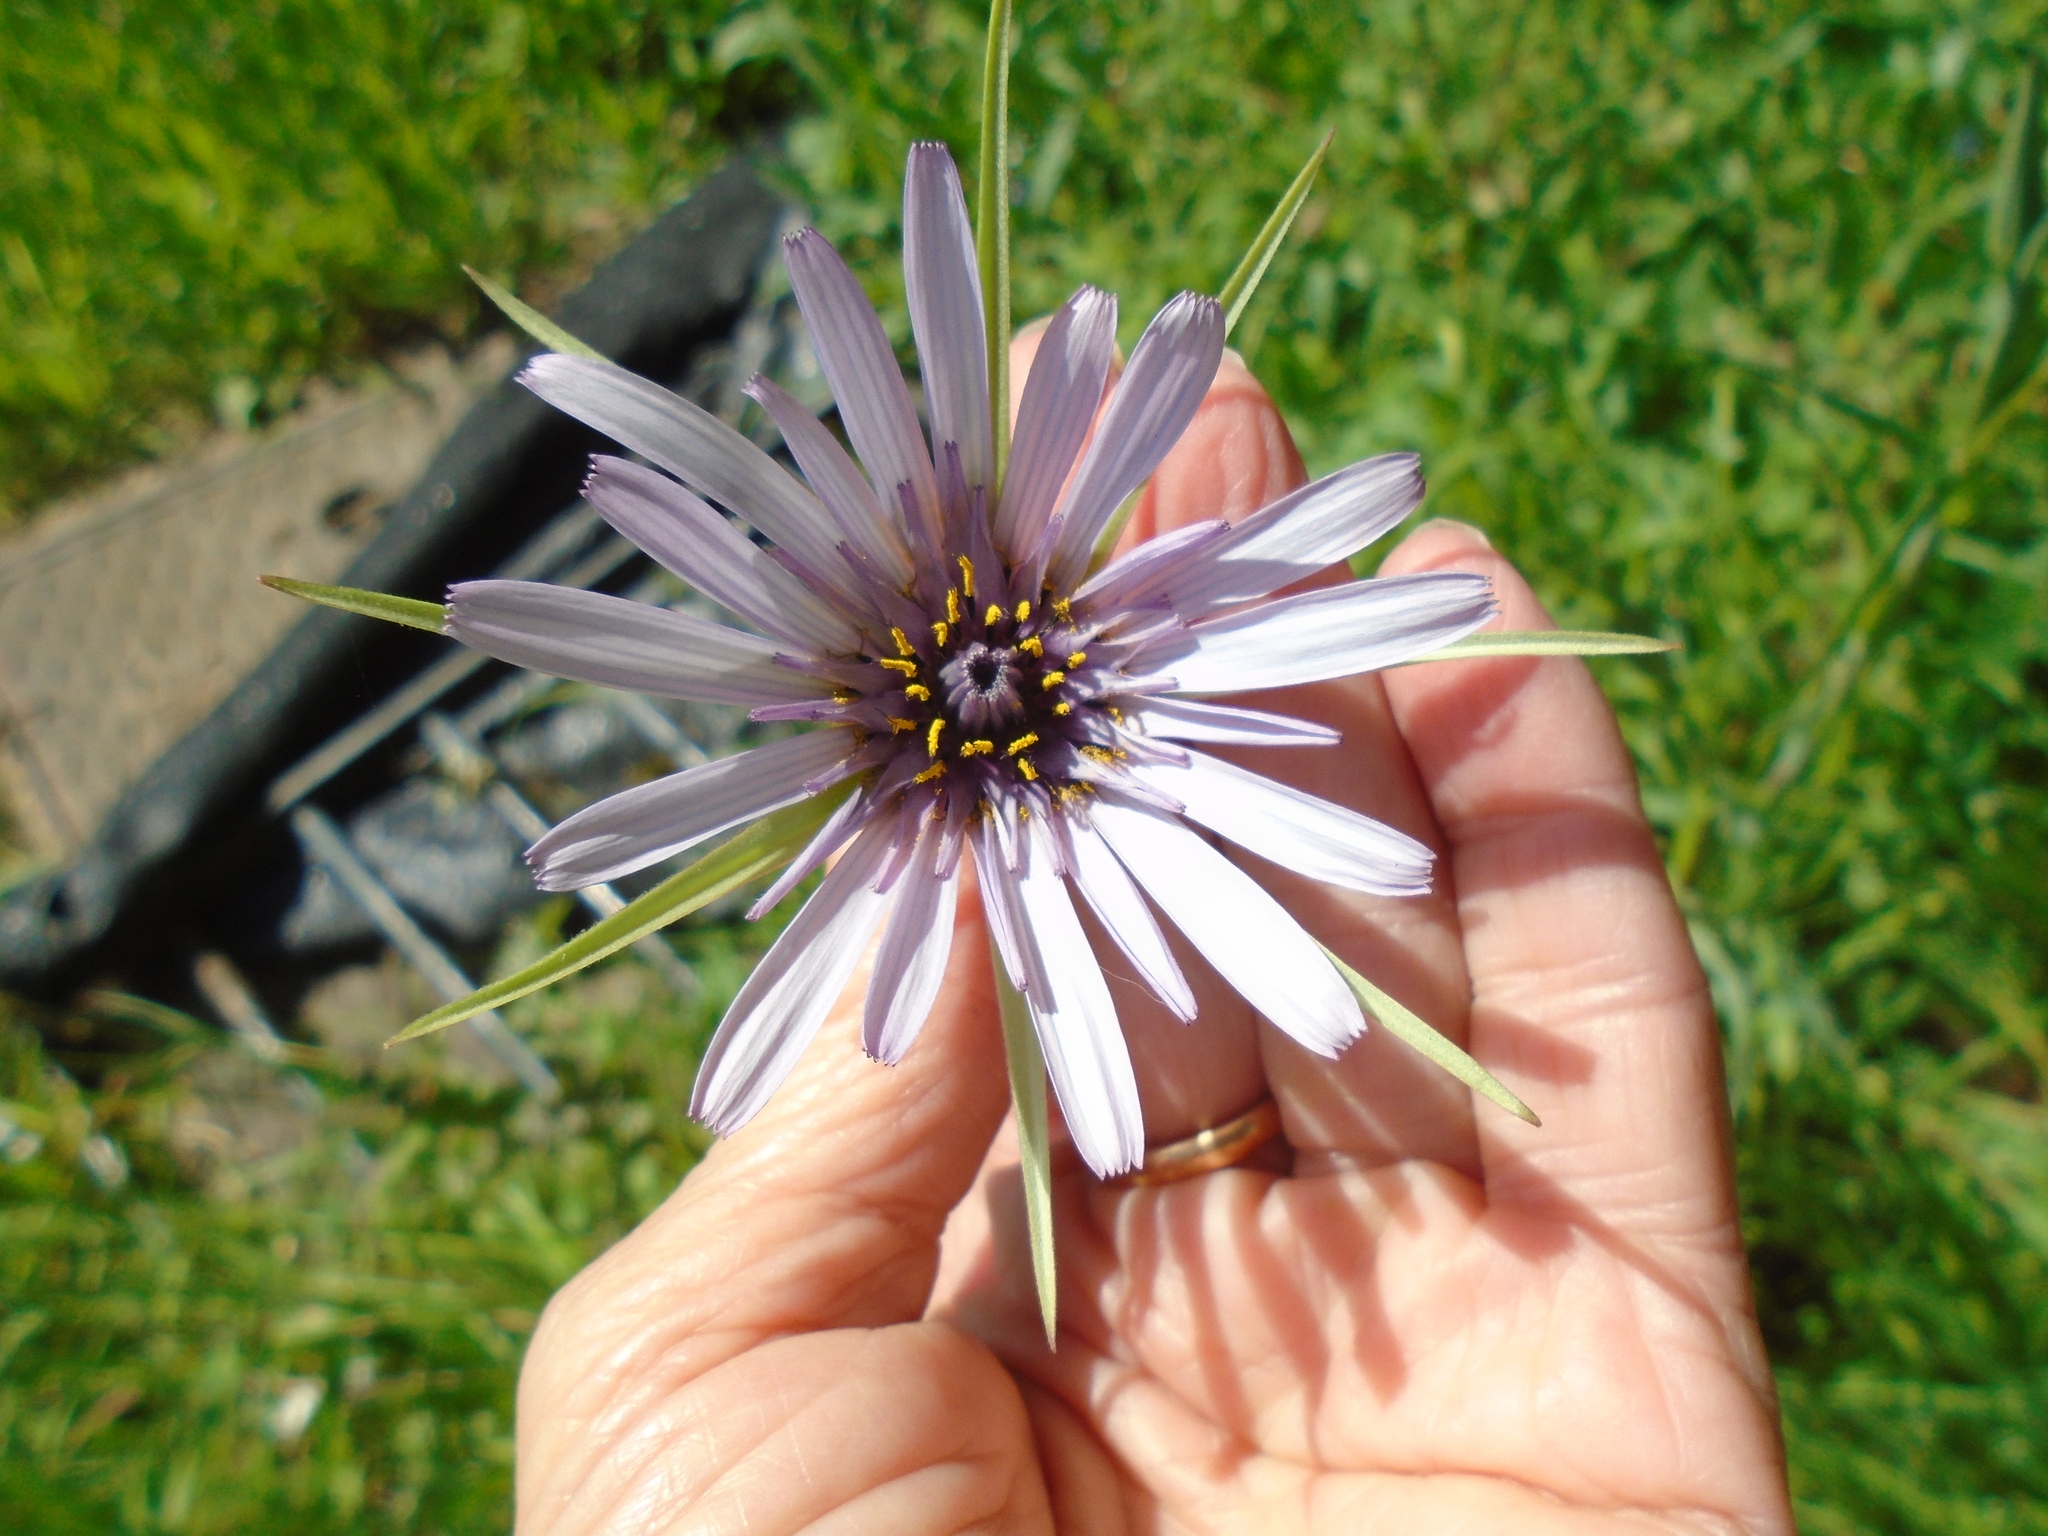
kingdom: Plantae
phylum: Tracheophyta
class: Magnoliopsida
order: Asterales
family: Asteraceae
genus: Tragopogon
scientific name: Tragopogon porrifolius
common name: Salsify
